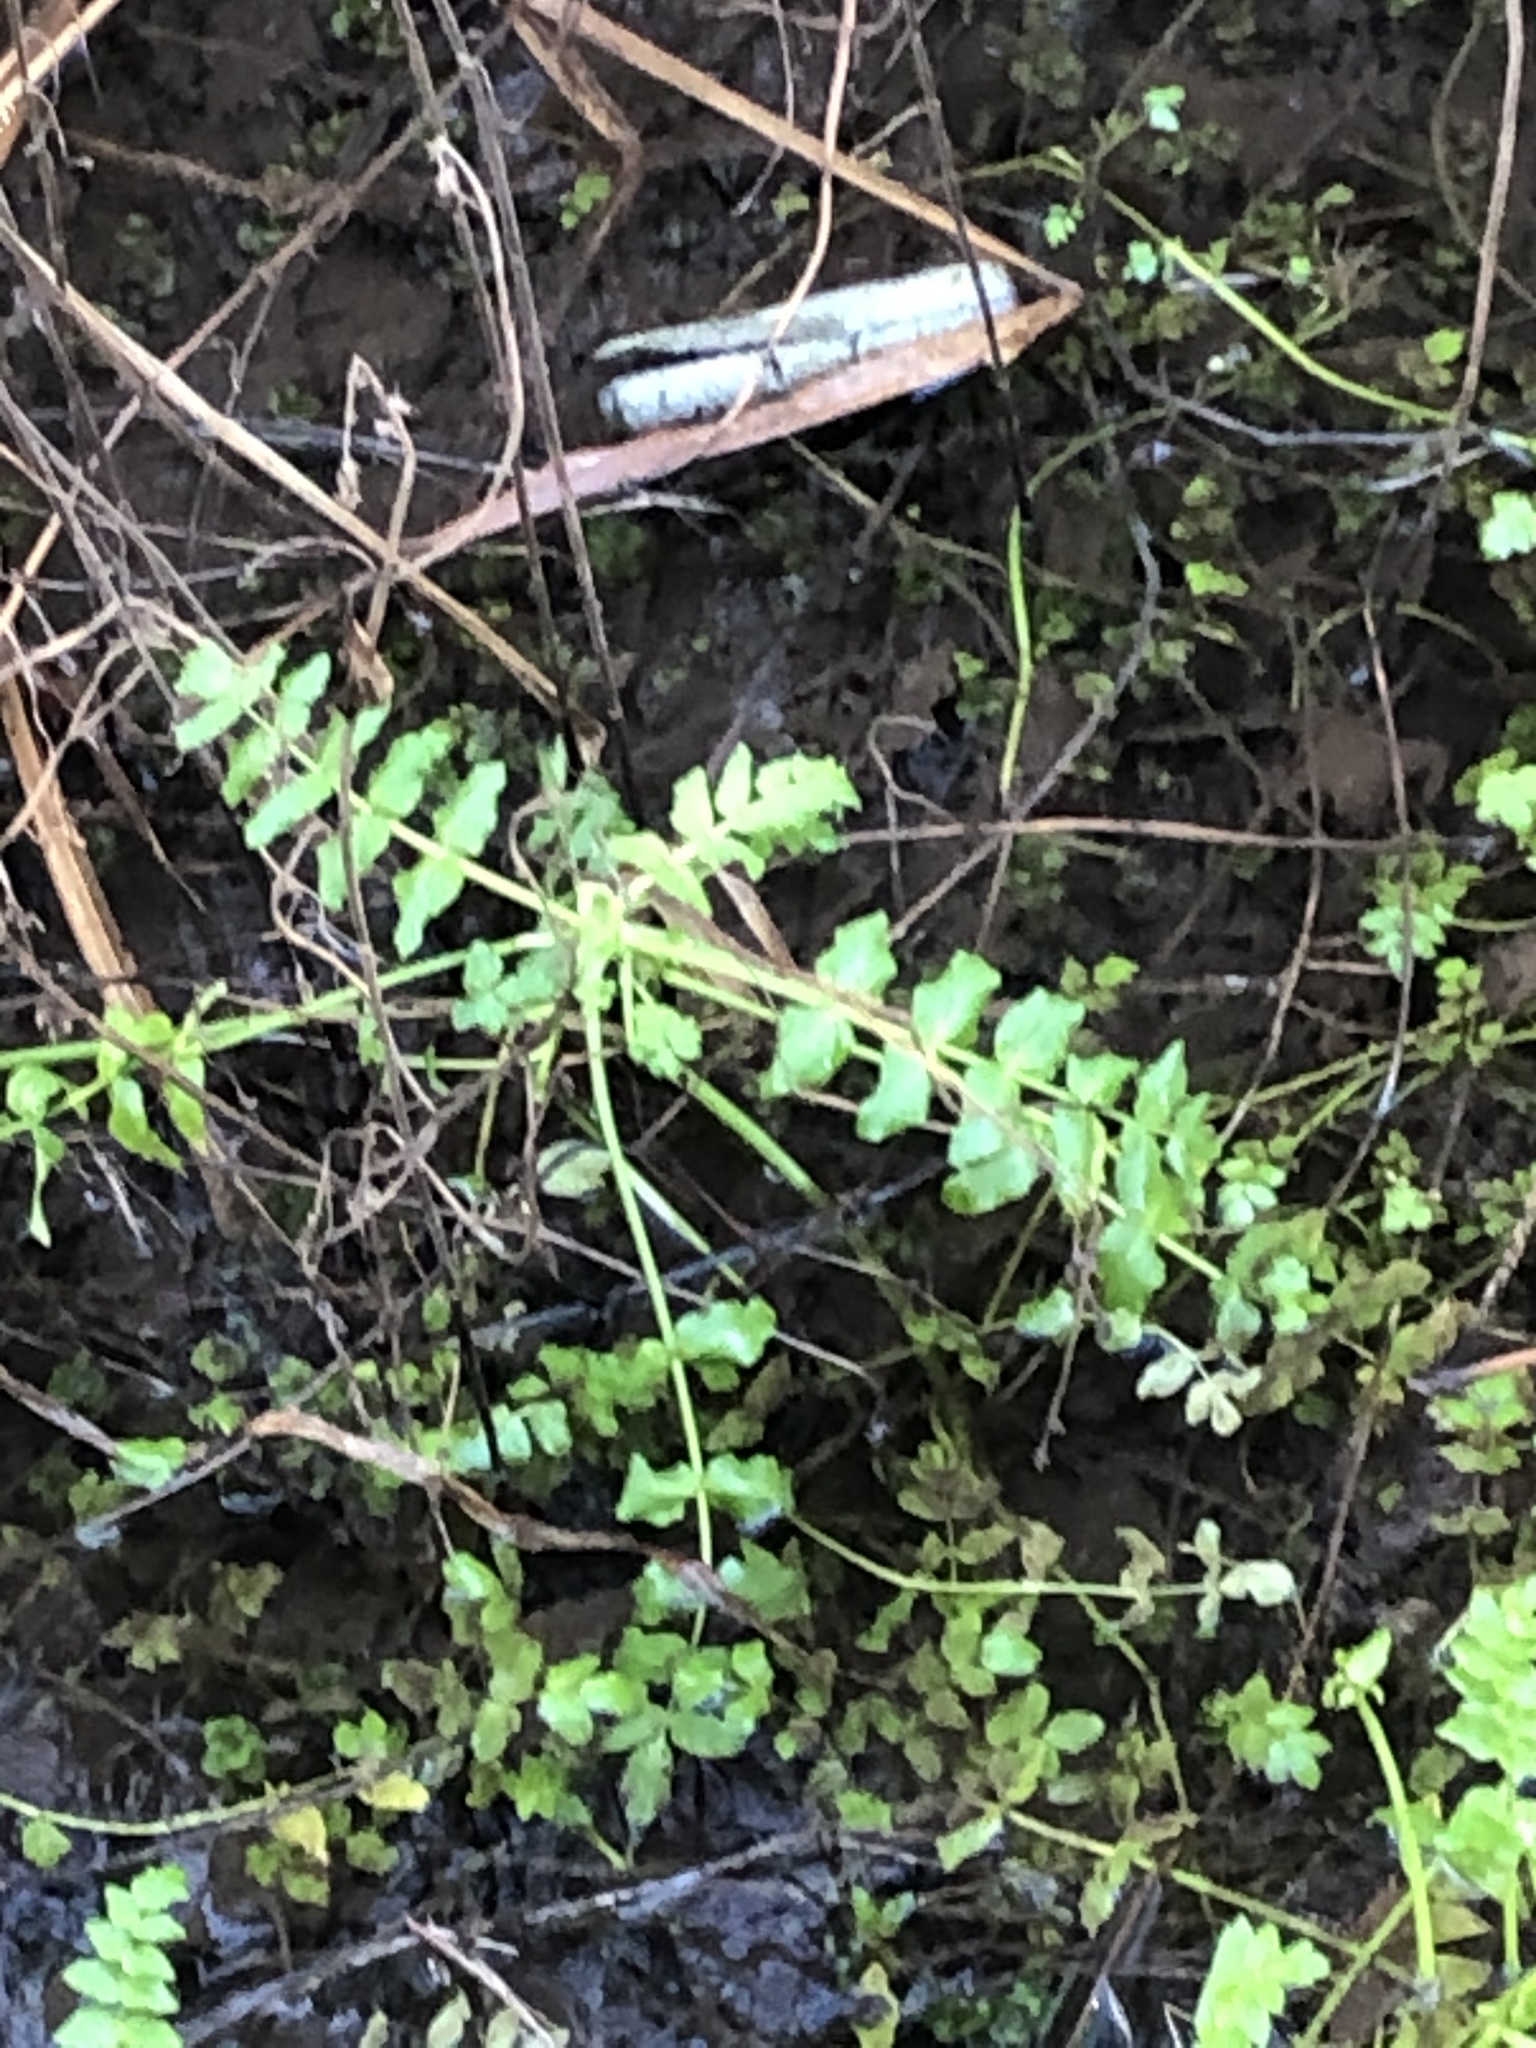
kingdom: Plantae
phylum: Tracheophyta
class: Magnoliopsida
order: Apiales
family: Apiaceae
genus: Helosciadium
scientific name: Helosciadium nodiflorum
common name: Fool's-watercress
